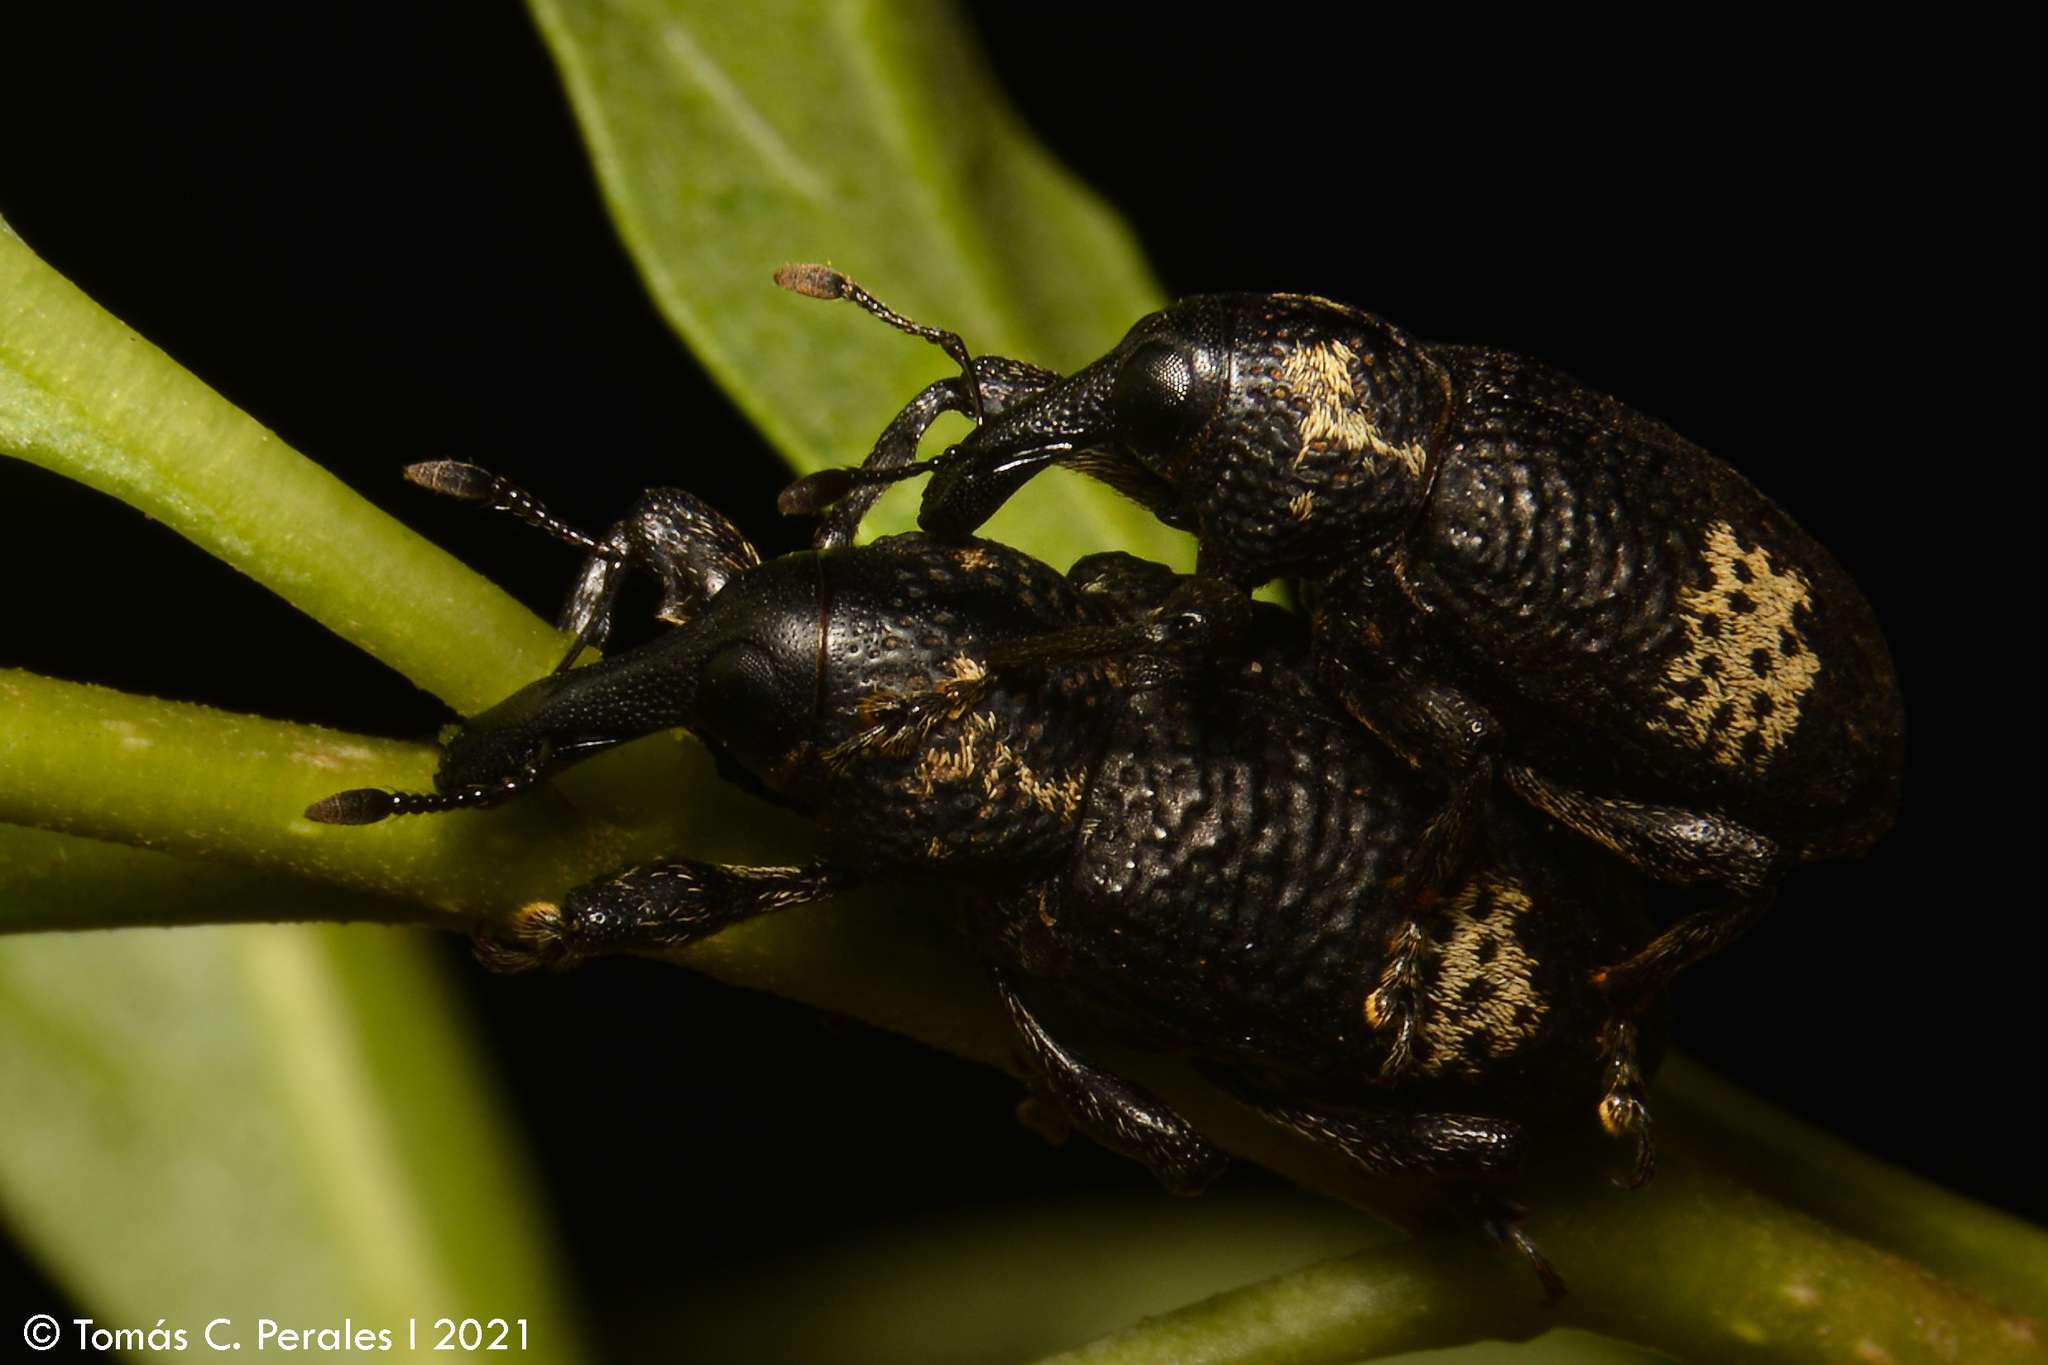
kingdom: Animalia
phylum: Arthropoda
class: Insecta
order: Coleoptera
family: Curculionidae
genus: Heilipus
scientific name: Heilipus deletangi
